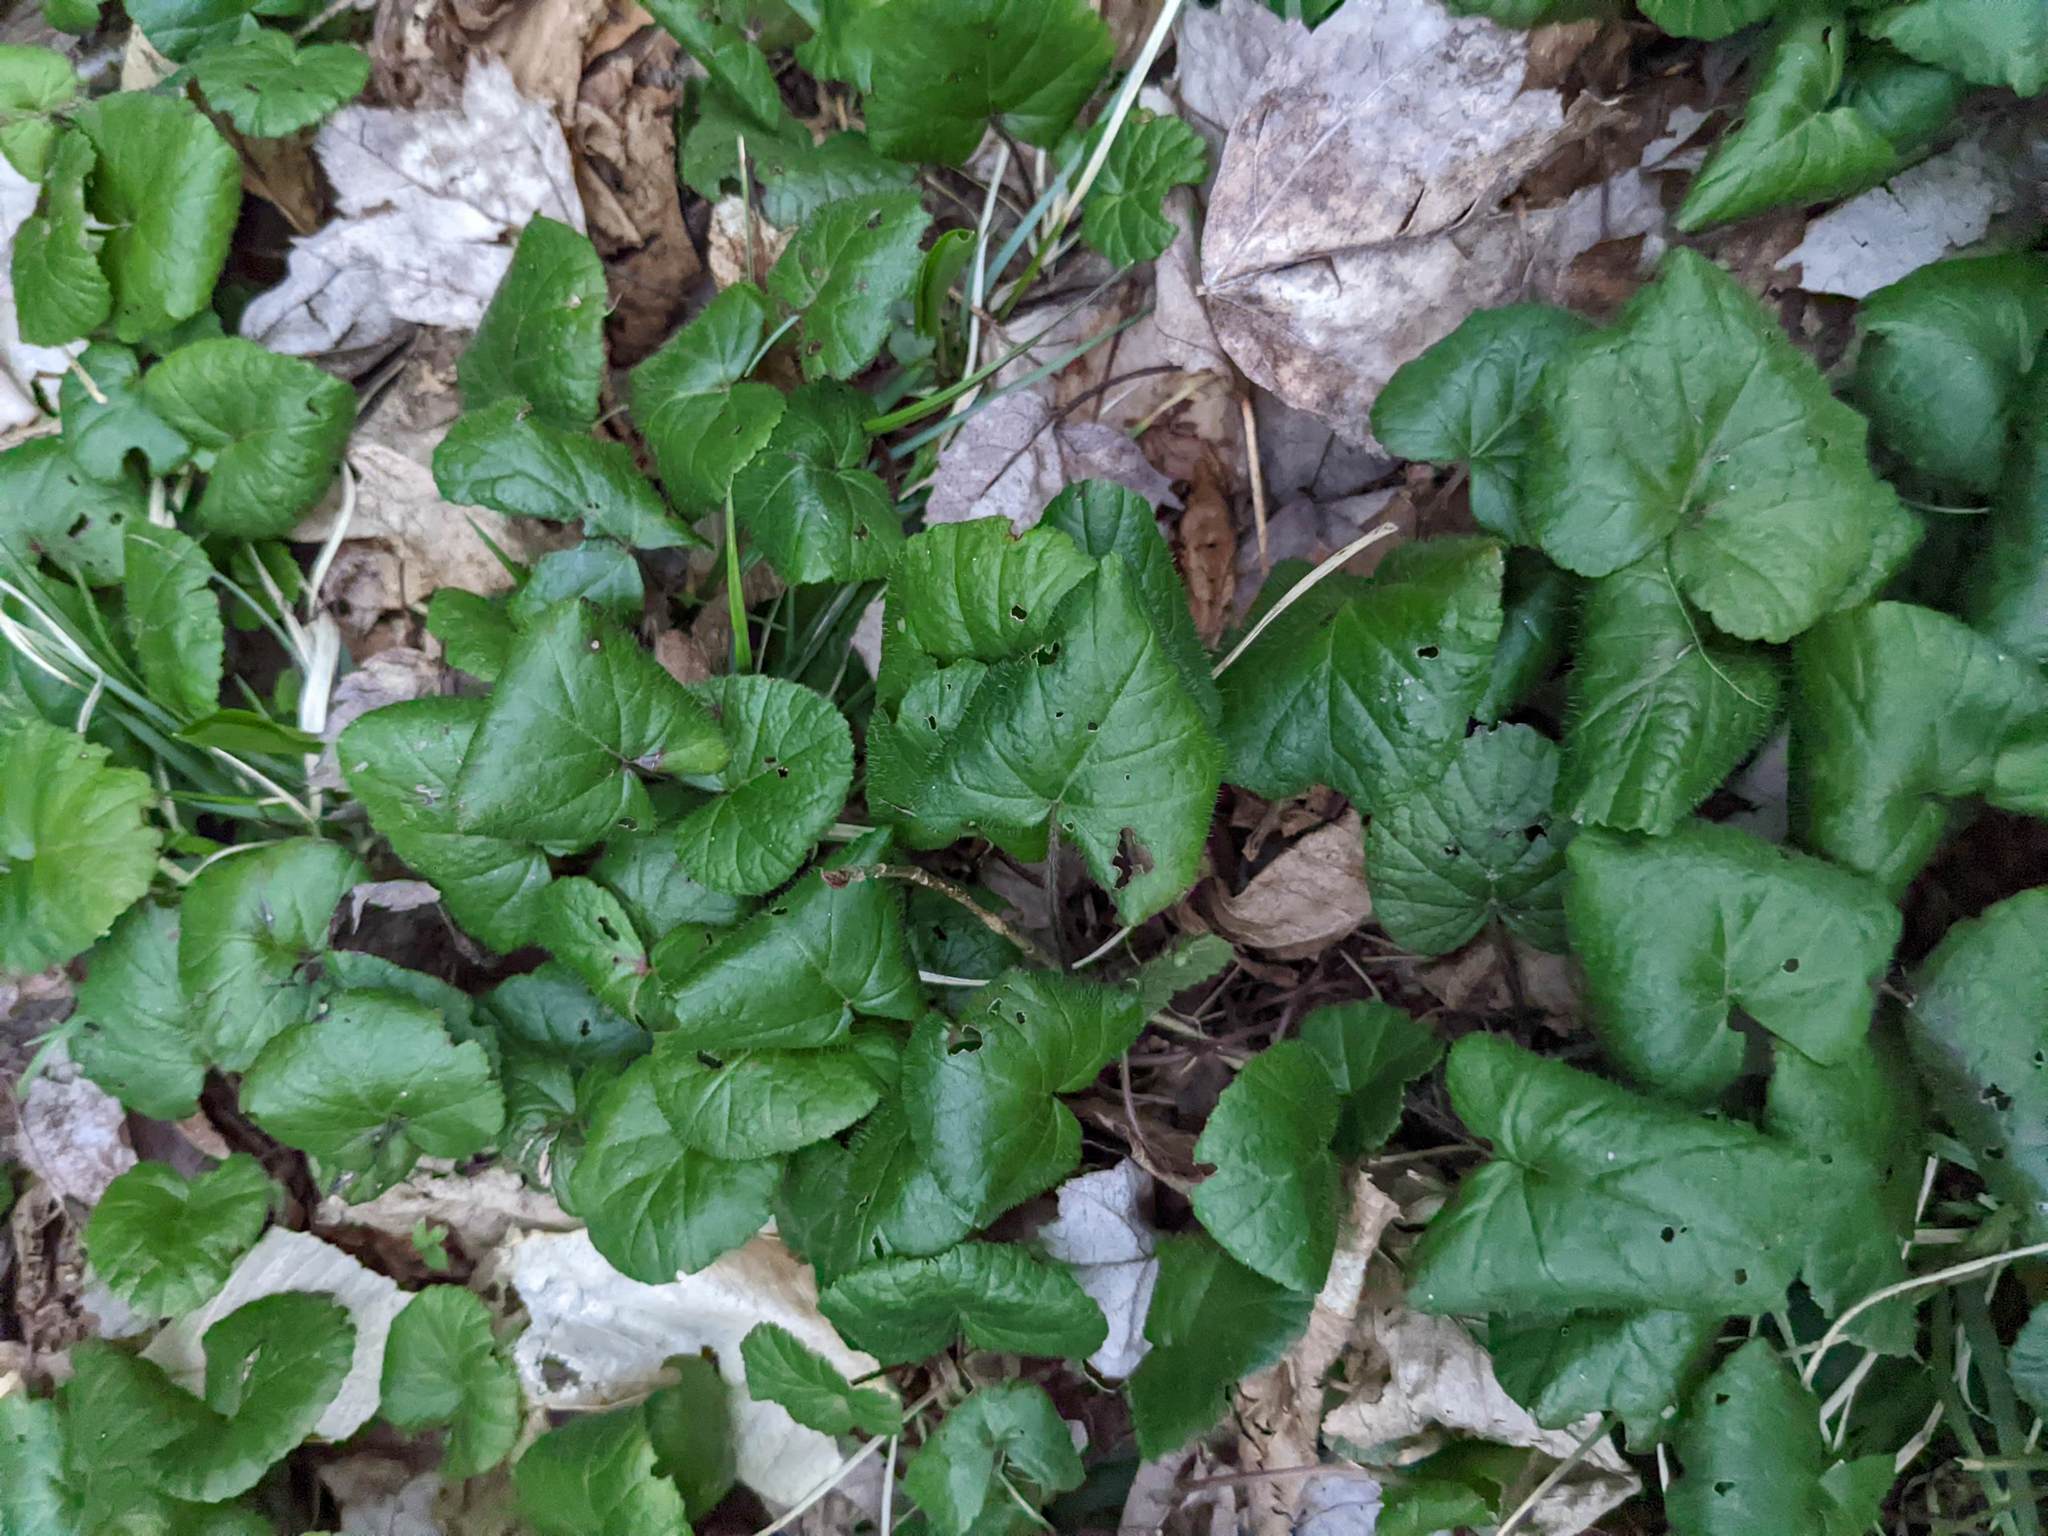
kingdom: Plantae
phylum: Tracheophyta
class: Magnoliopsida
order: Rosales
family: Rosaceae
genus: Dalibarda
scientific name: Dalibarda repens
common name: Dewdrop
